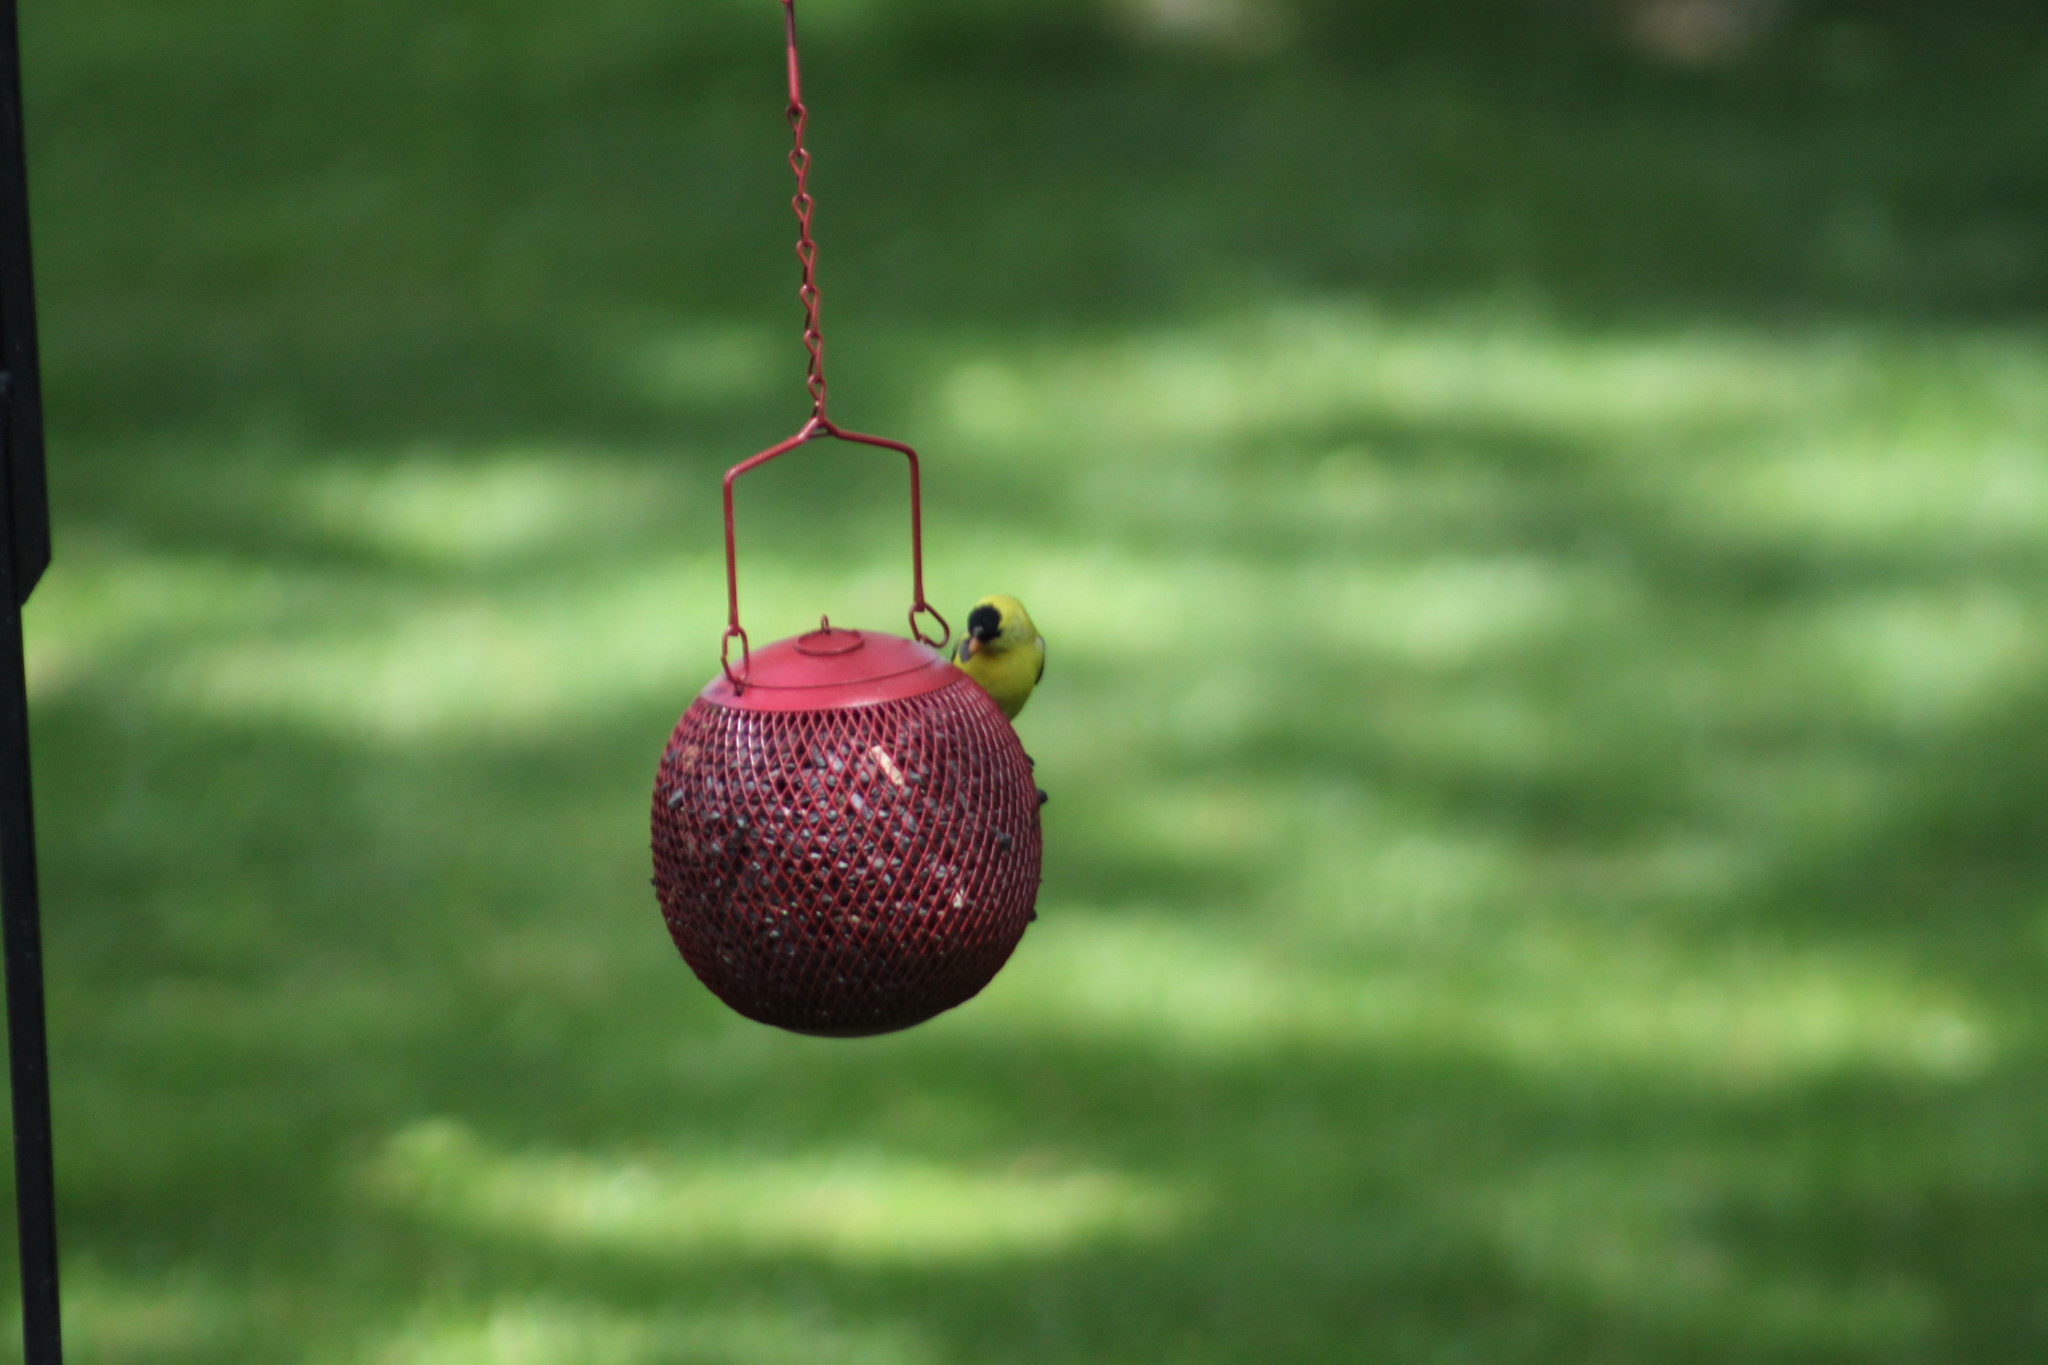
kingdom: Animalia
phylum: Chordata
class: Aves
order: Passeriformes
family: Fringillidae
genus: Spinus
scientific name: Spinus tristis
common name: American goldfinch
